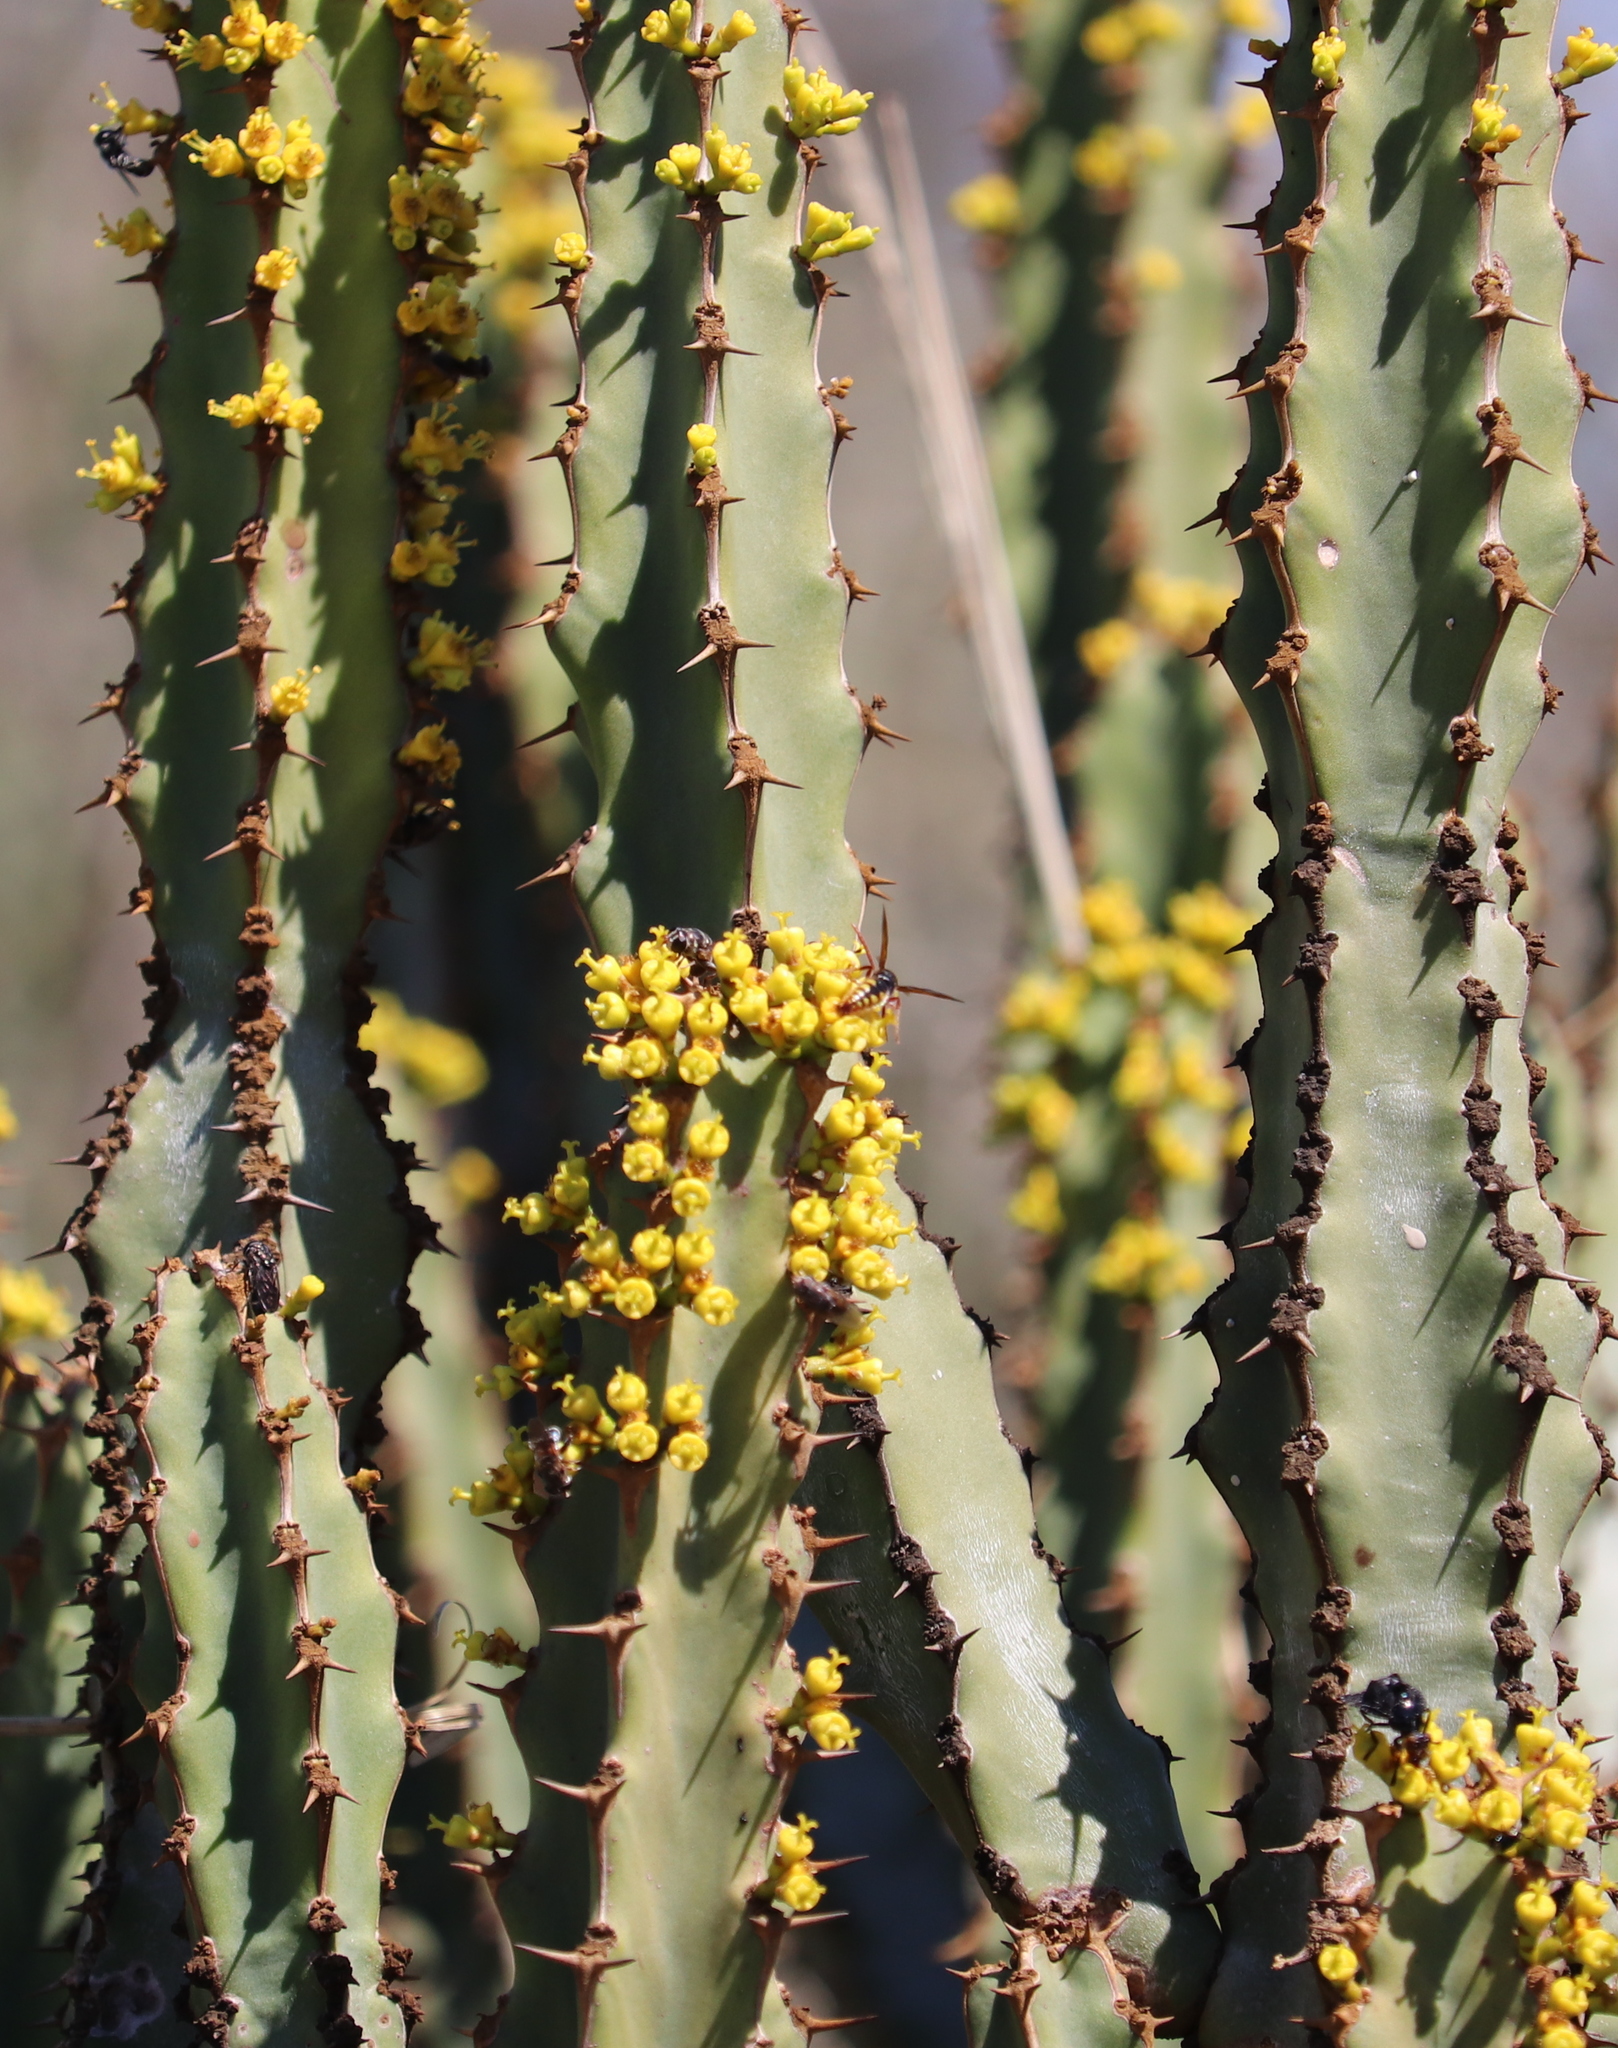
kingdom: Plantae
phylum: Tracheophyta
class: Magnoliopsida
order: Malpighiales
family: Euphorbiaceae
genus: Euphorbia
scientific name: Euphorbia caerulescens
